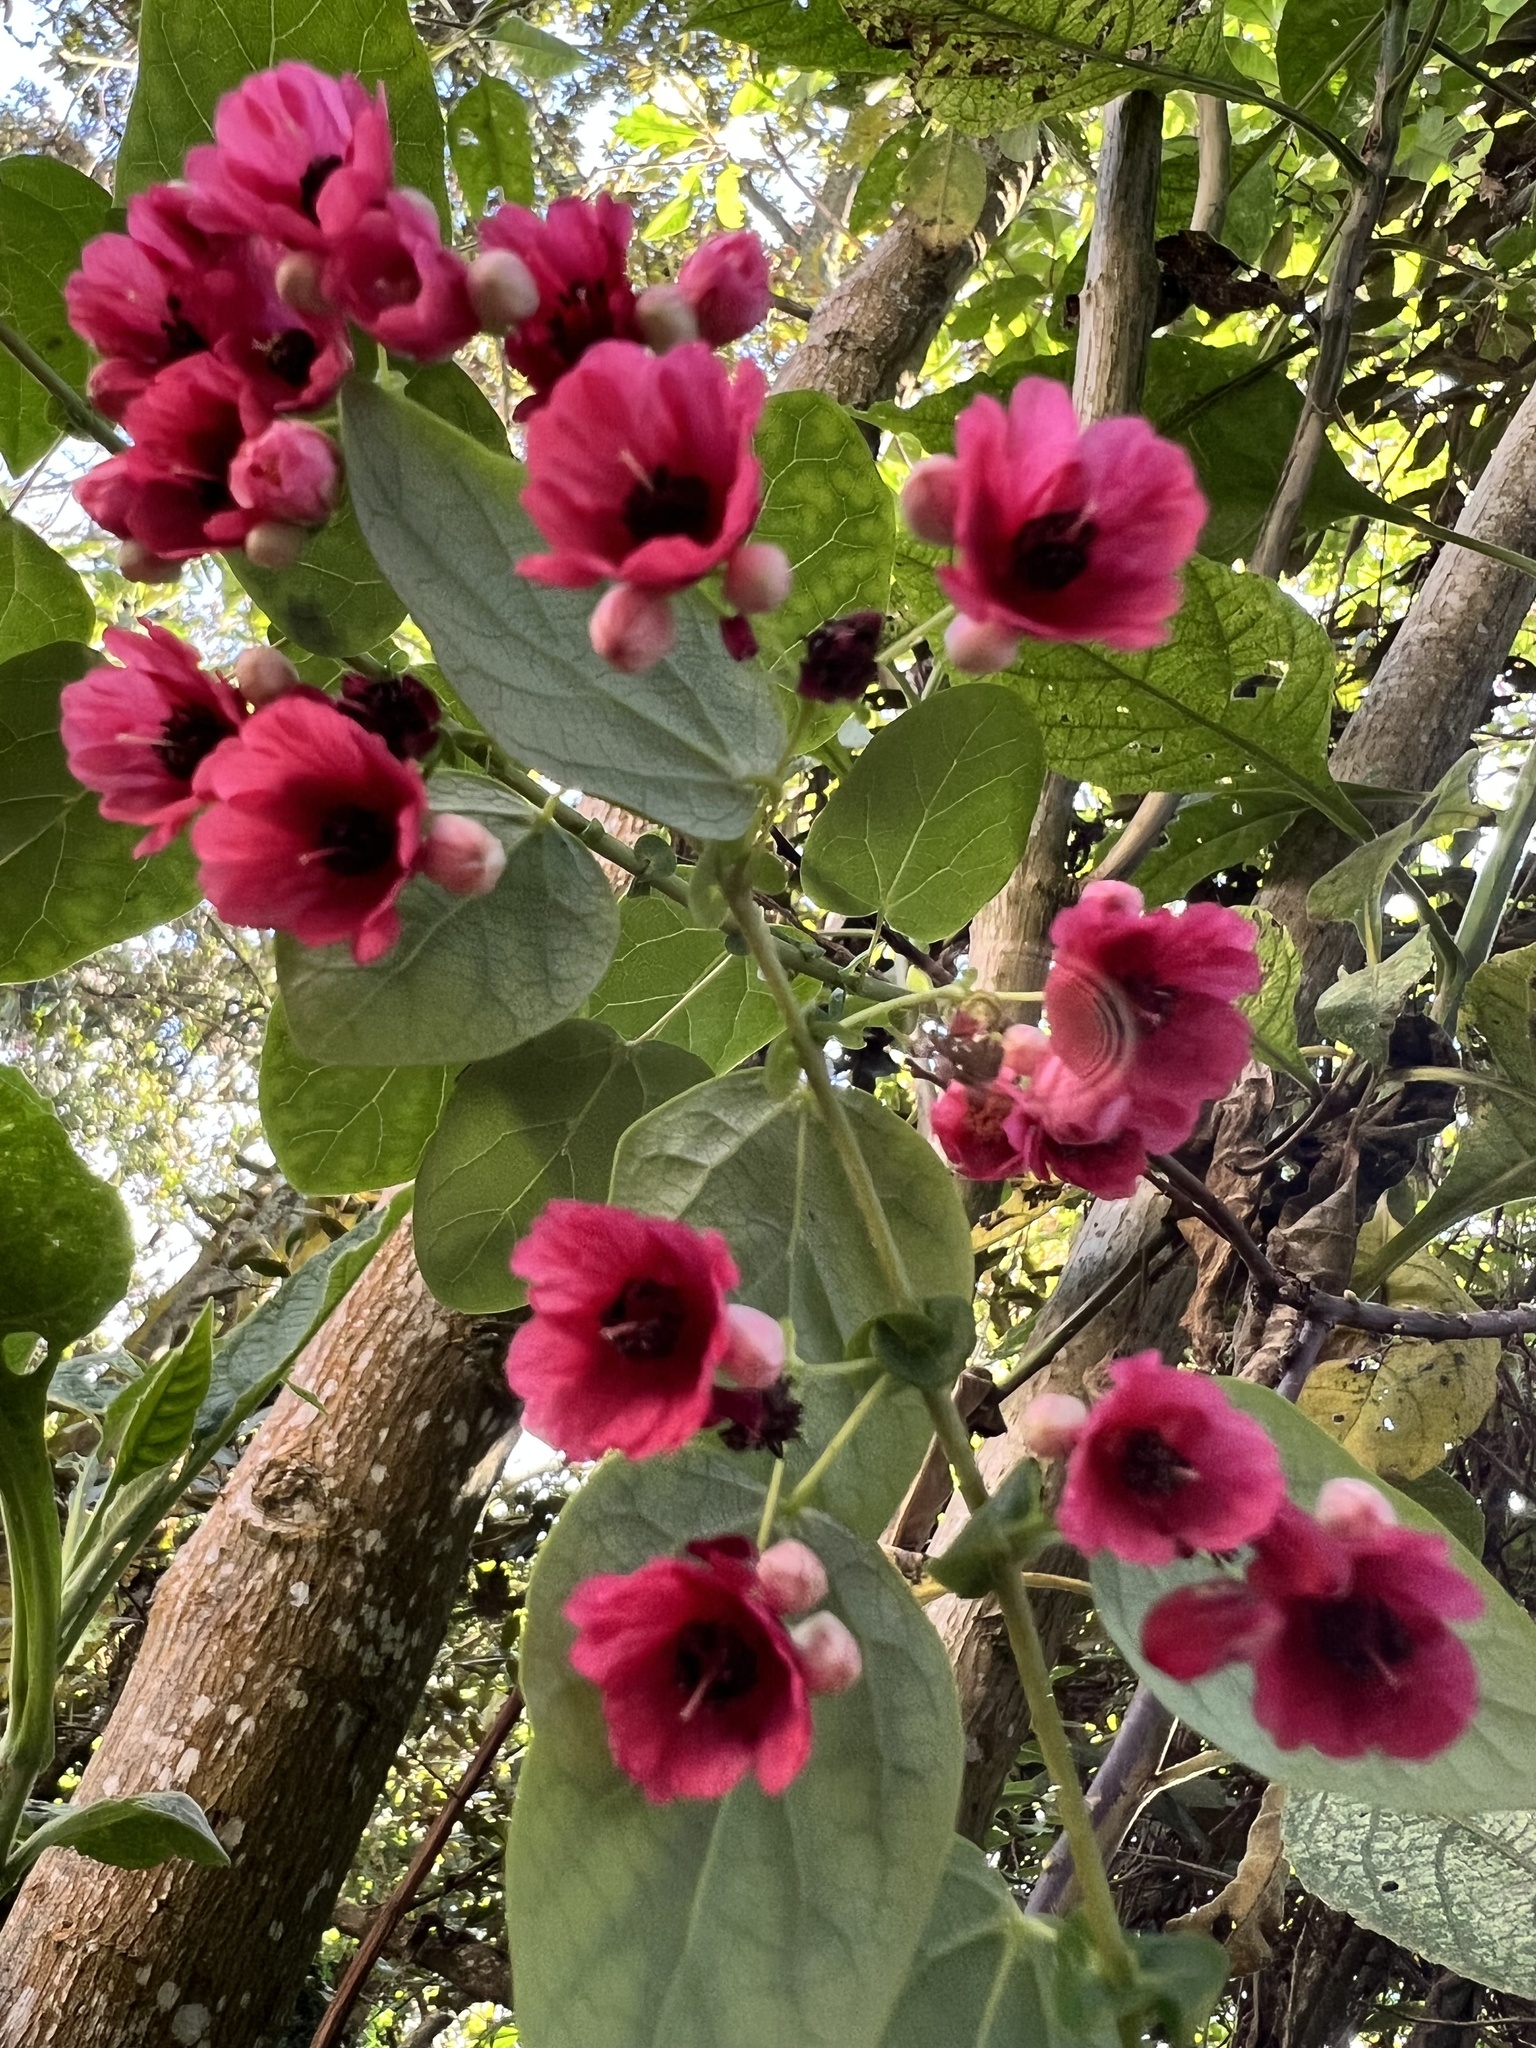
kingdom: Plantae
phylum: Tracheophyta
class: Magnoliopsida
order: Oxalidales
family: Elaeocarpaceae
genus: Vallea
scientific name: Vallea stipularis
